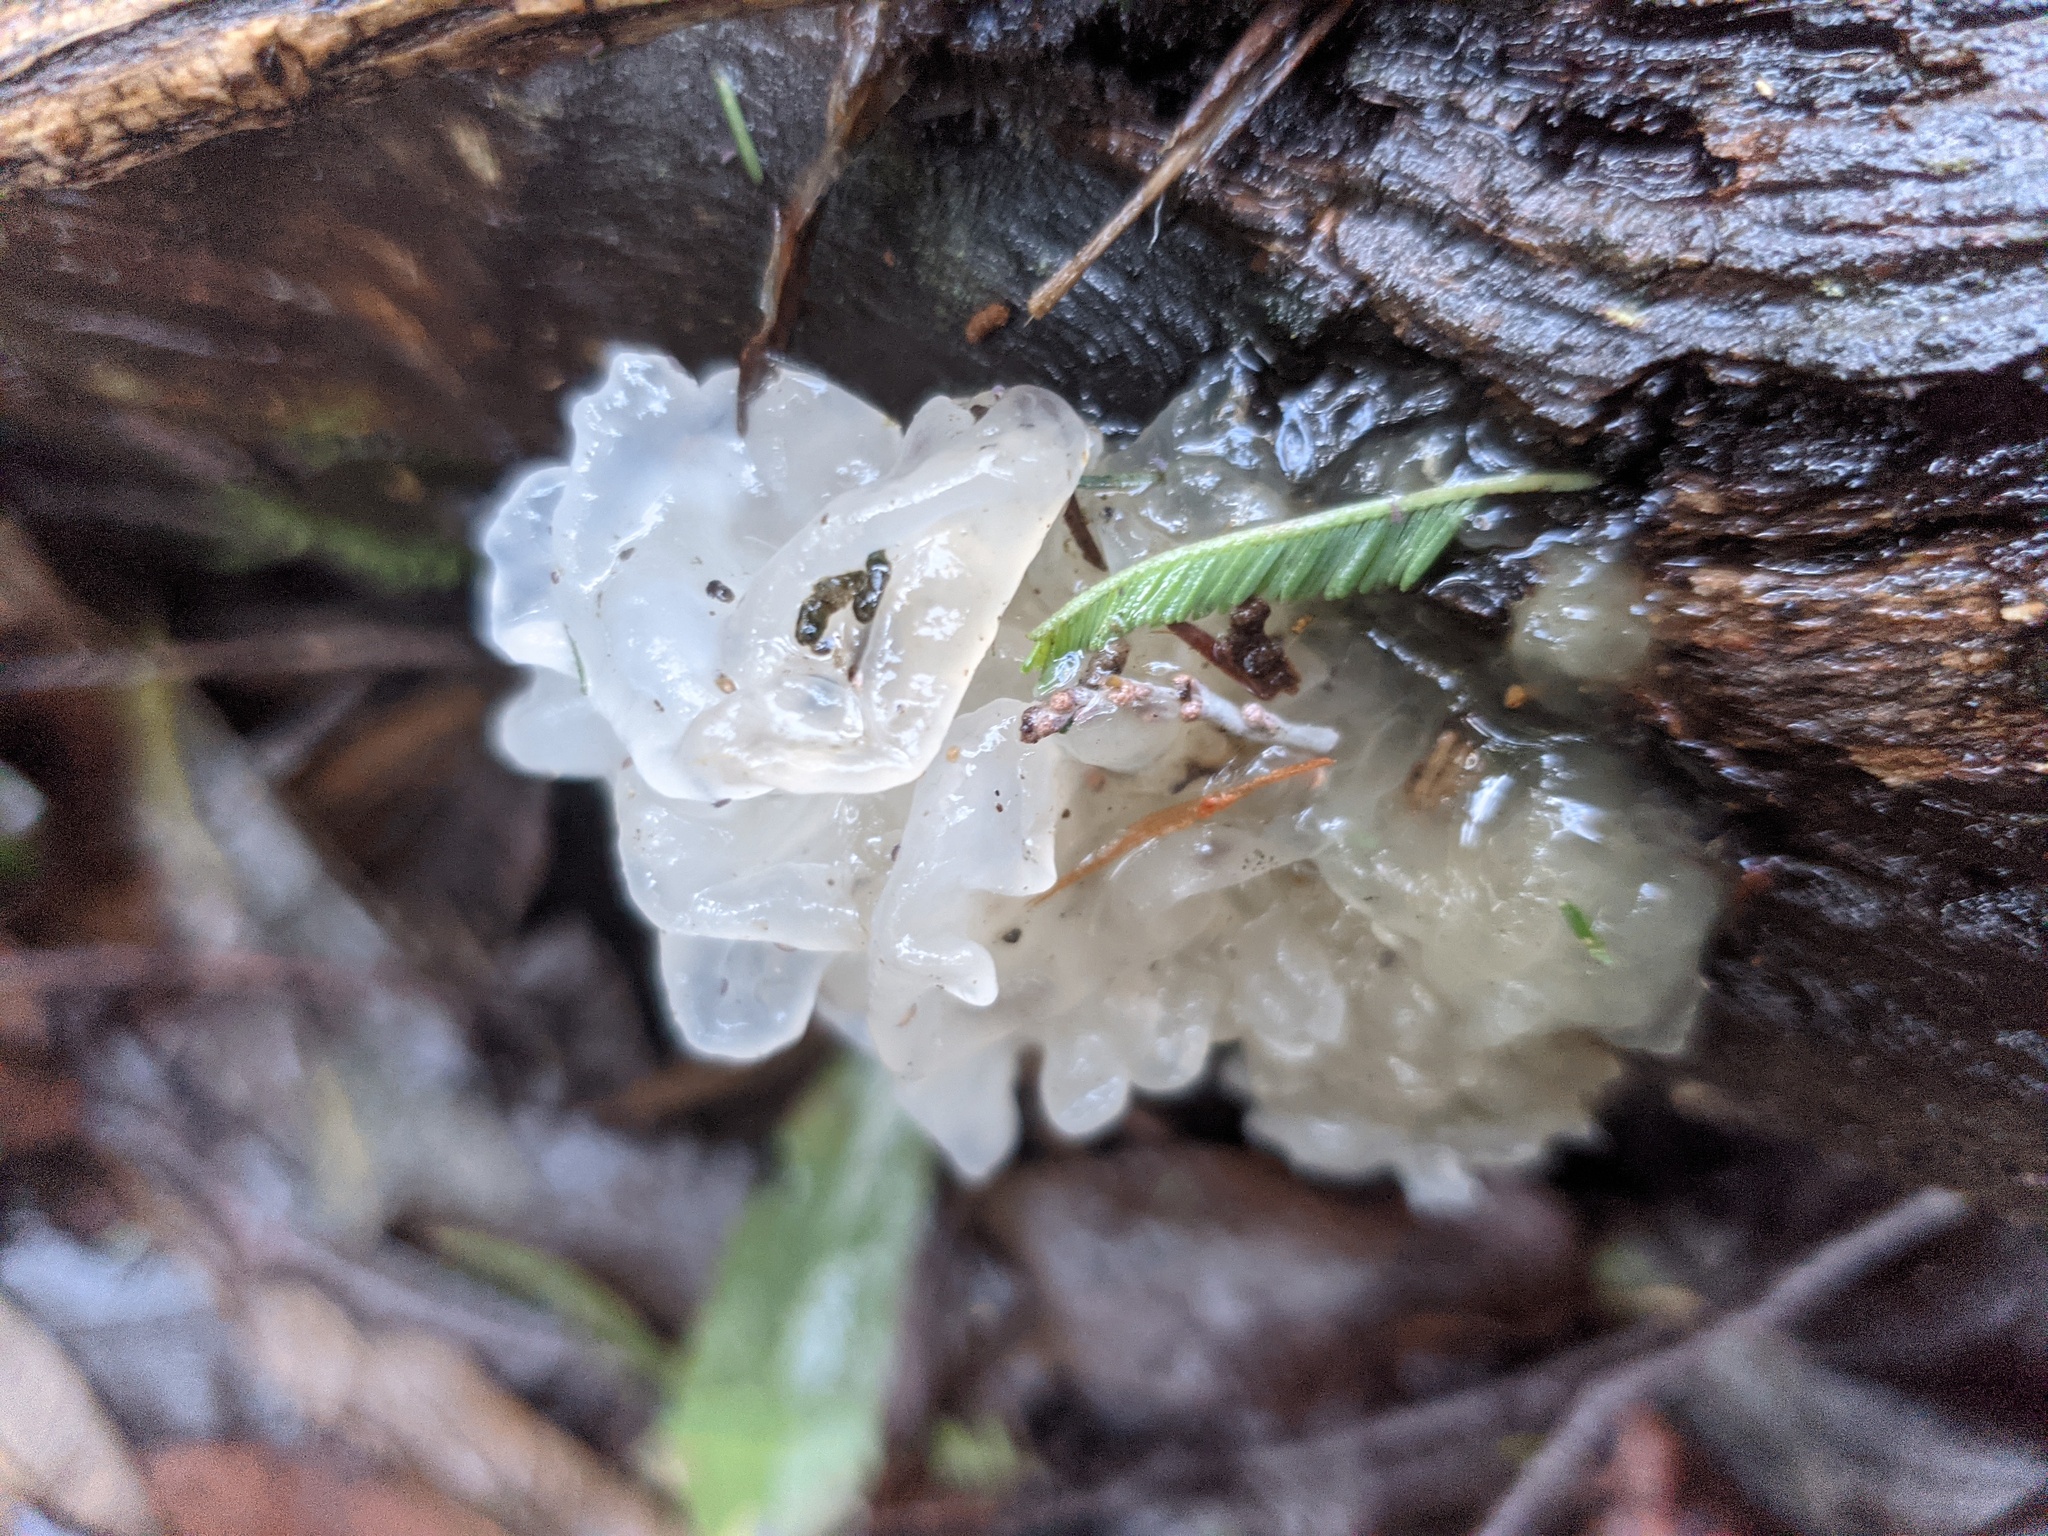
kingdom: Fungi
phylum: Basidiomycota
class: Tremellomycetes
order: Tremellales
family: Tremellaceae
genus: Tremella
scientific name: Tremella fuciformis
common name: Snow fungus
